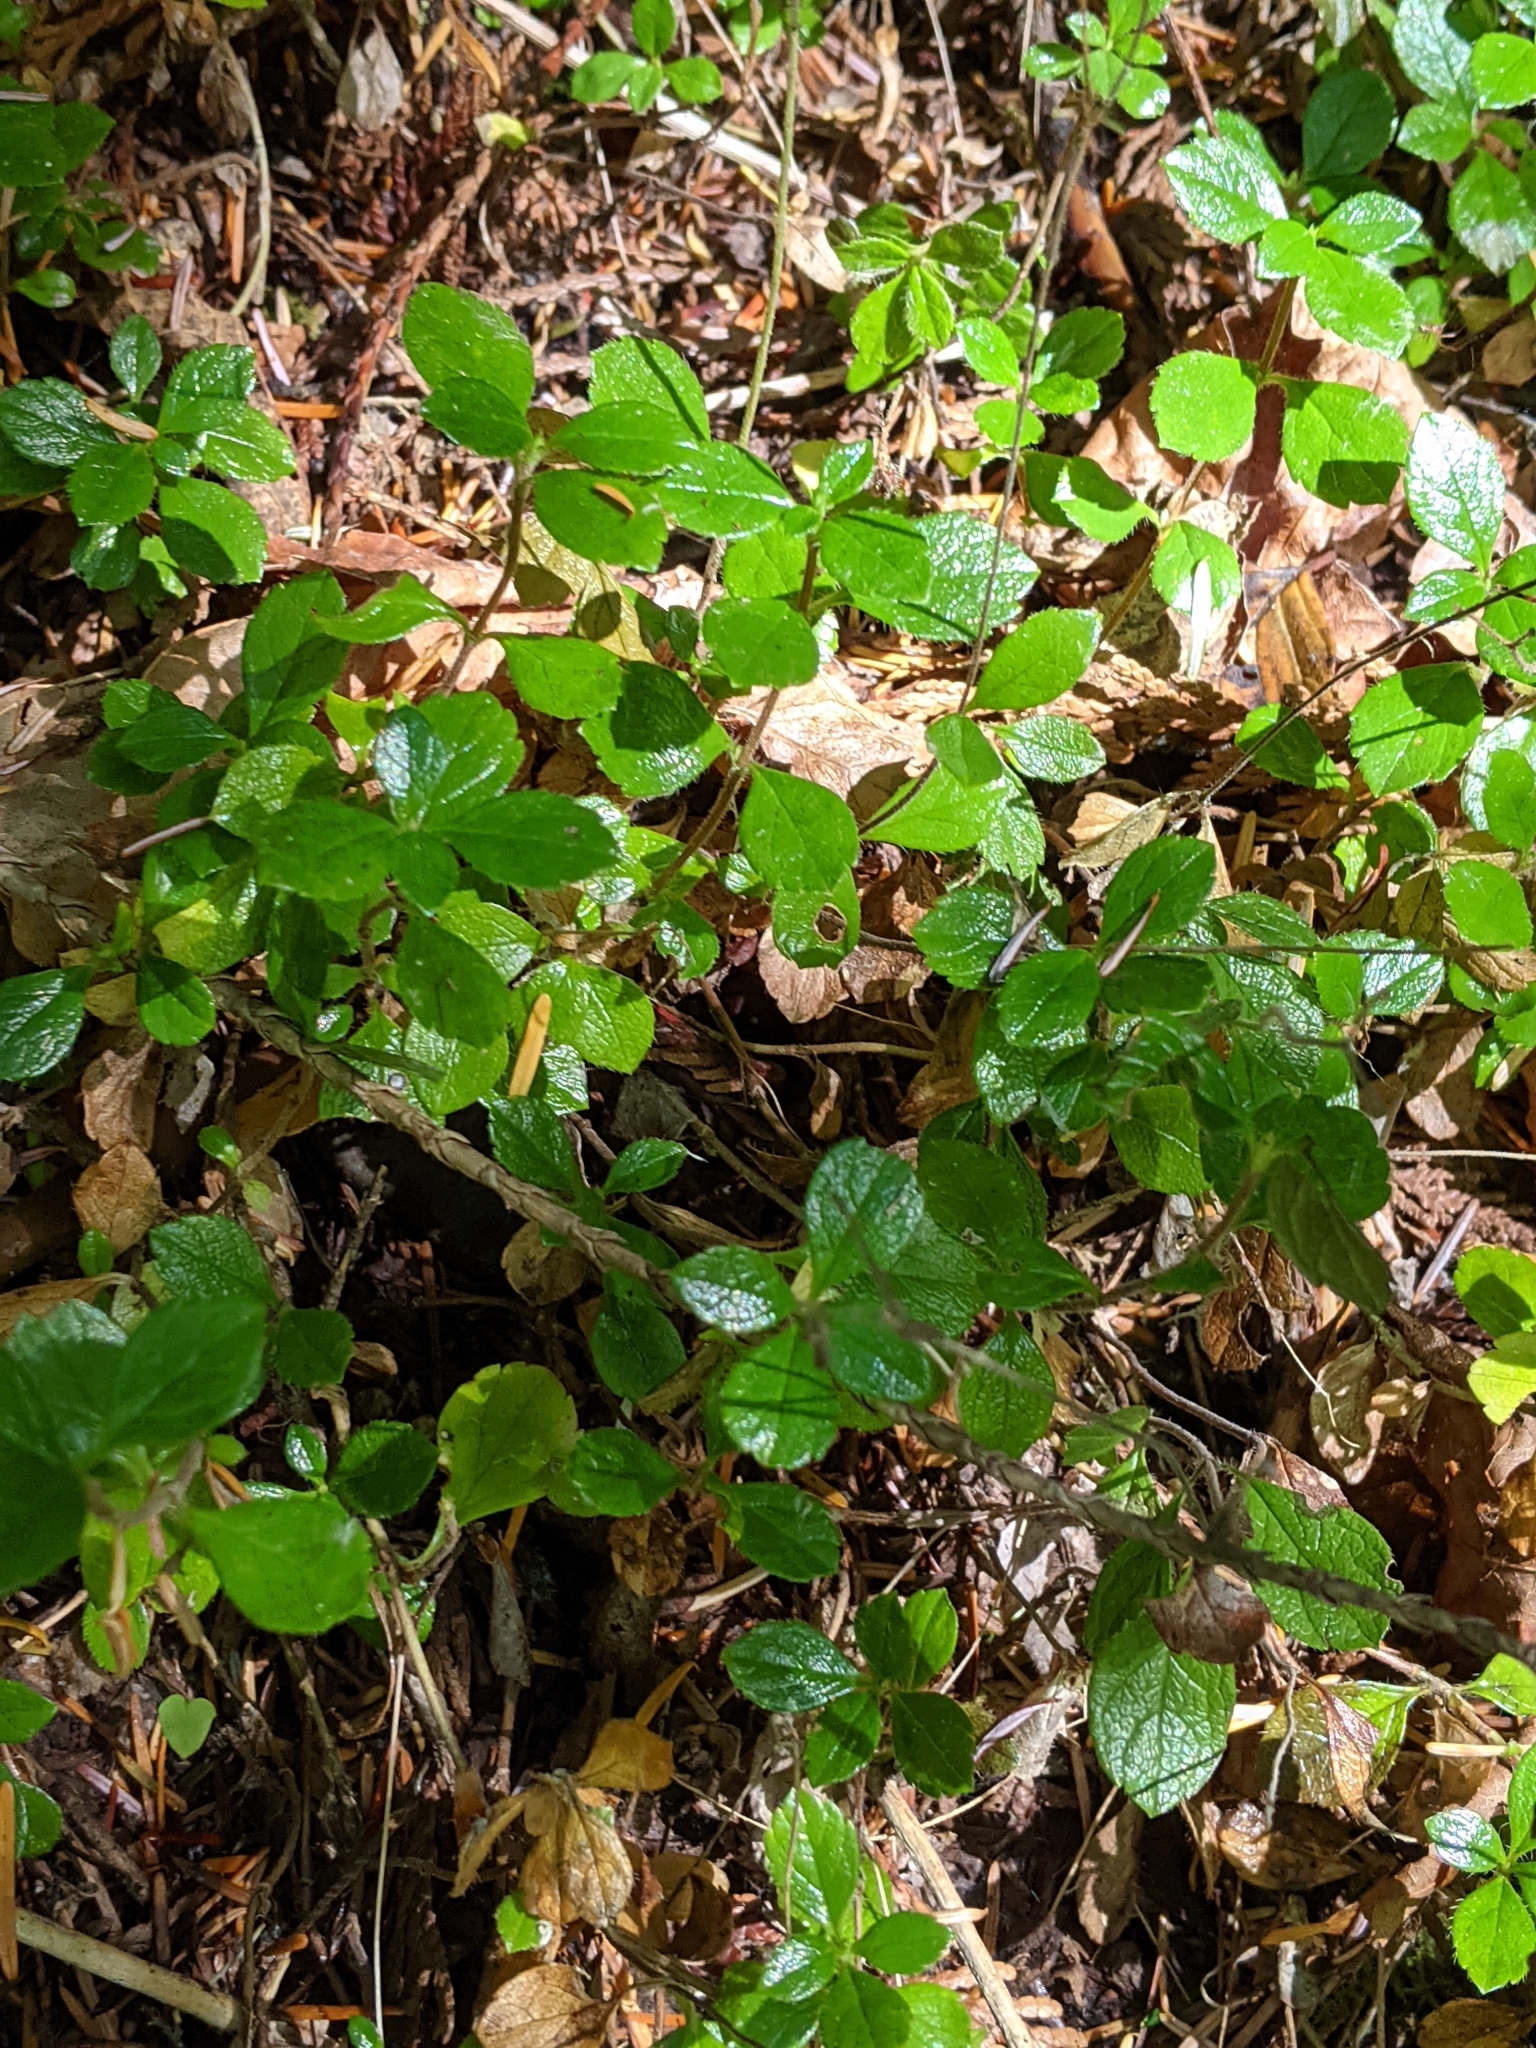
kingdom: Plantae
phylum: Tracheophyta
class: Magnoliopsida
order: Dipsacales
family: Caprifoliaceae
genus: Linnaea
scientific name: Linnaea borealis
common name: Twinflower
